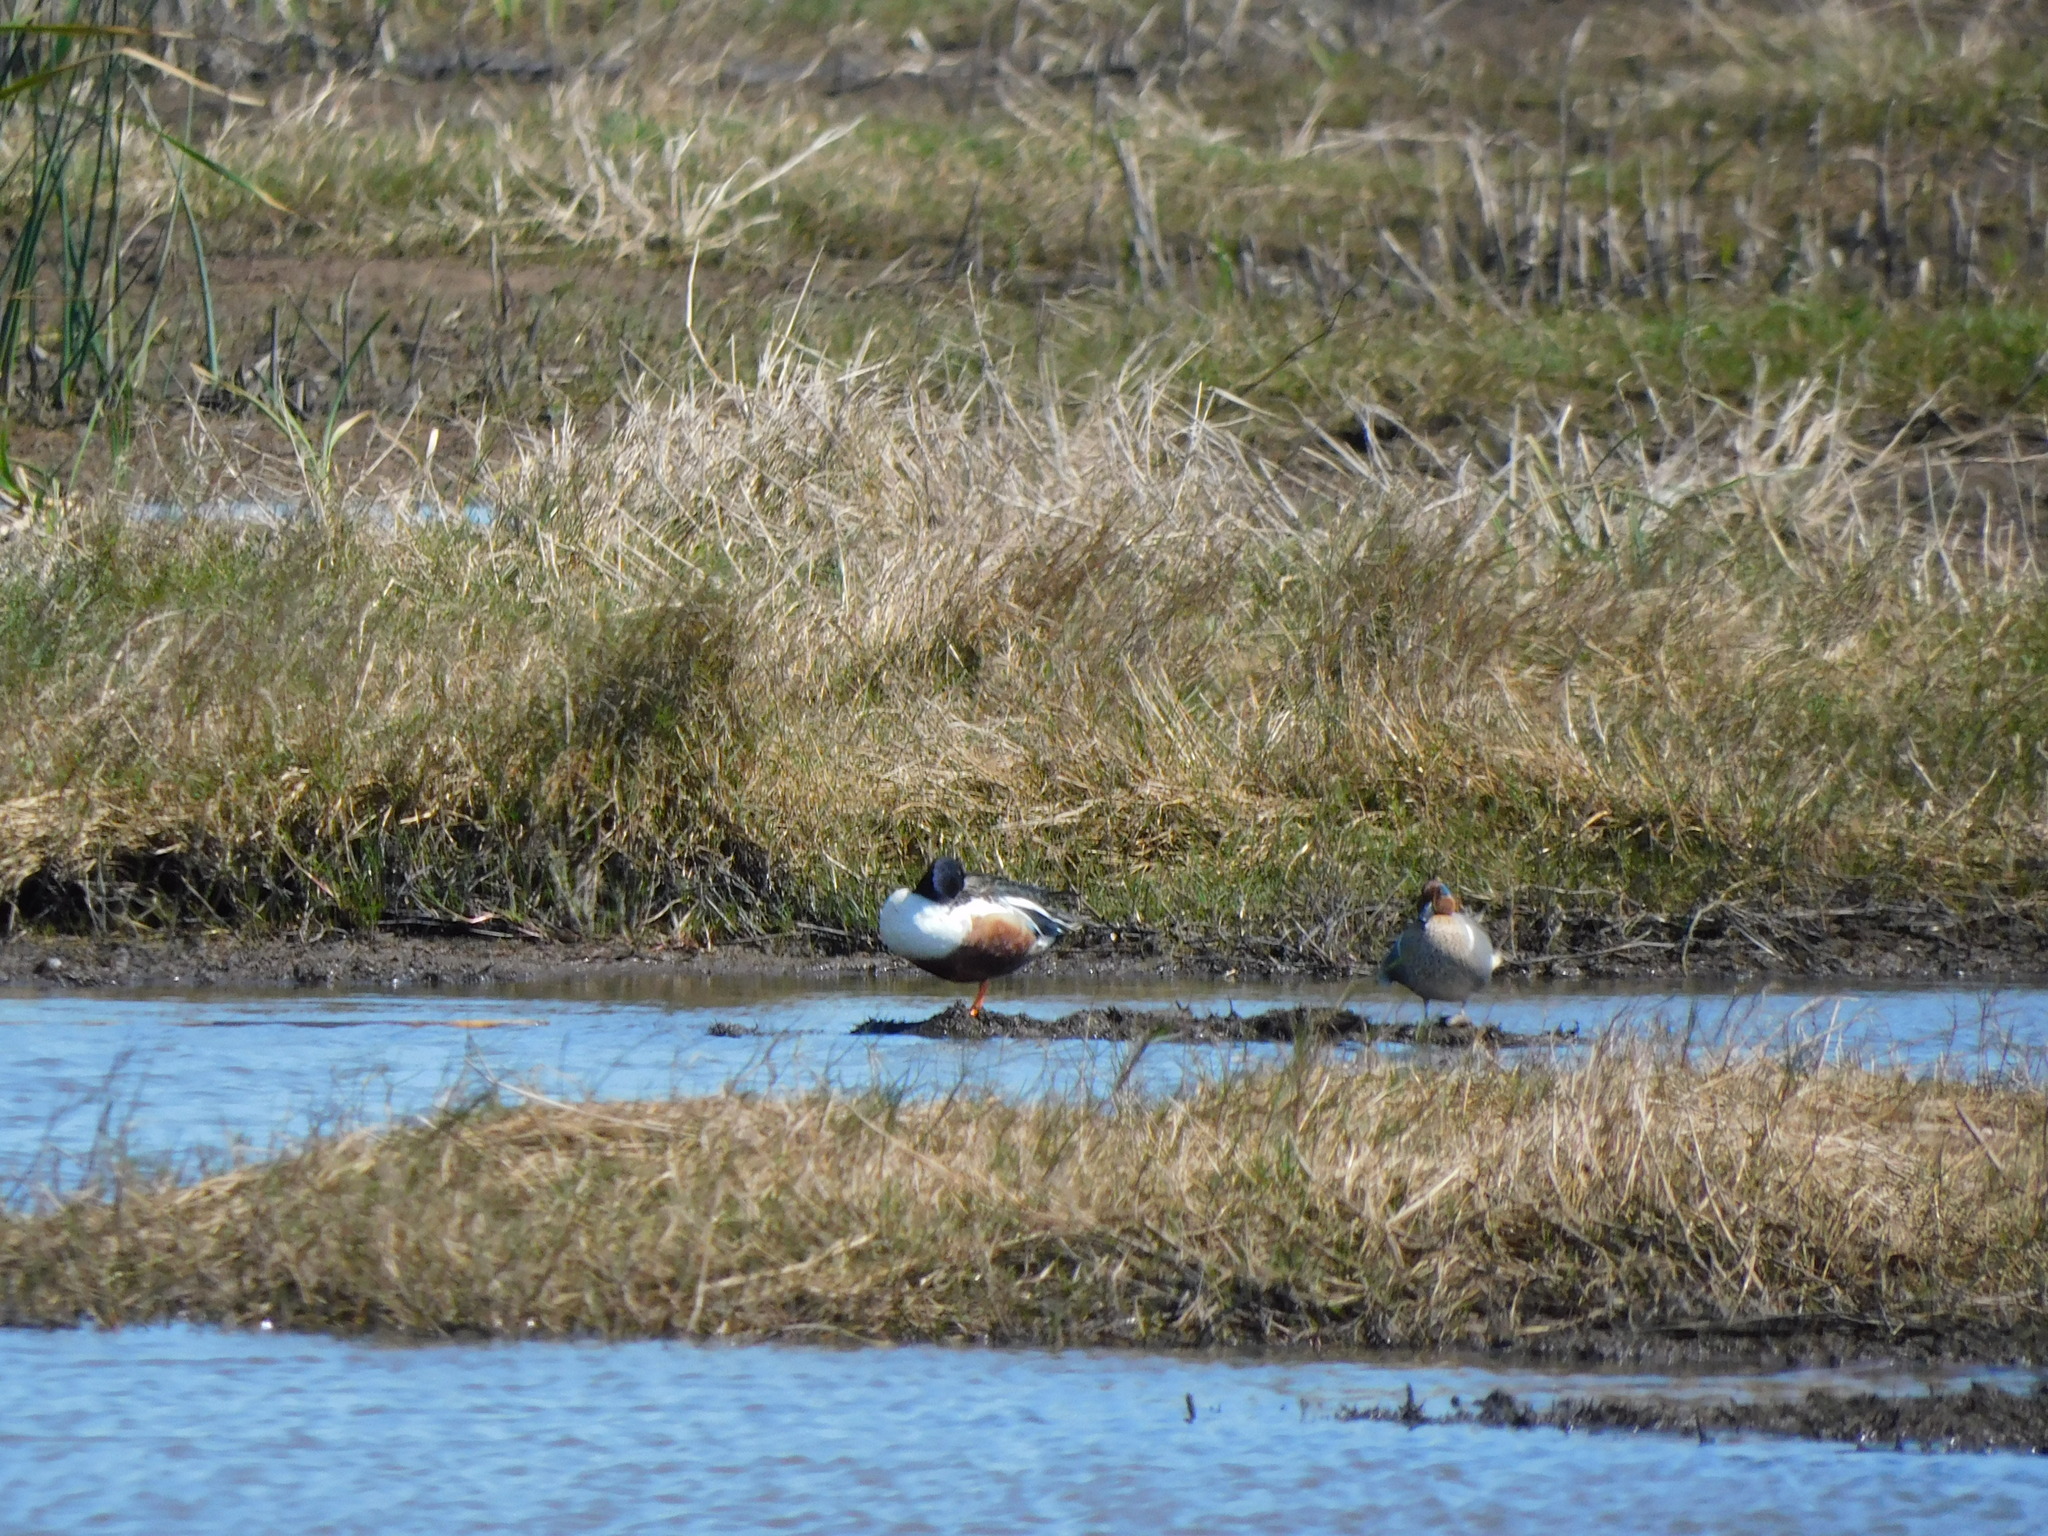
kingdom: Animalia
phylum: Chordata
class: Aves
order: Anseriformes
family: Anatidae
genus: Anas
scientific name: Anas crecca
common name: Eurasian teal
